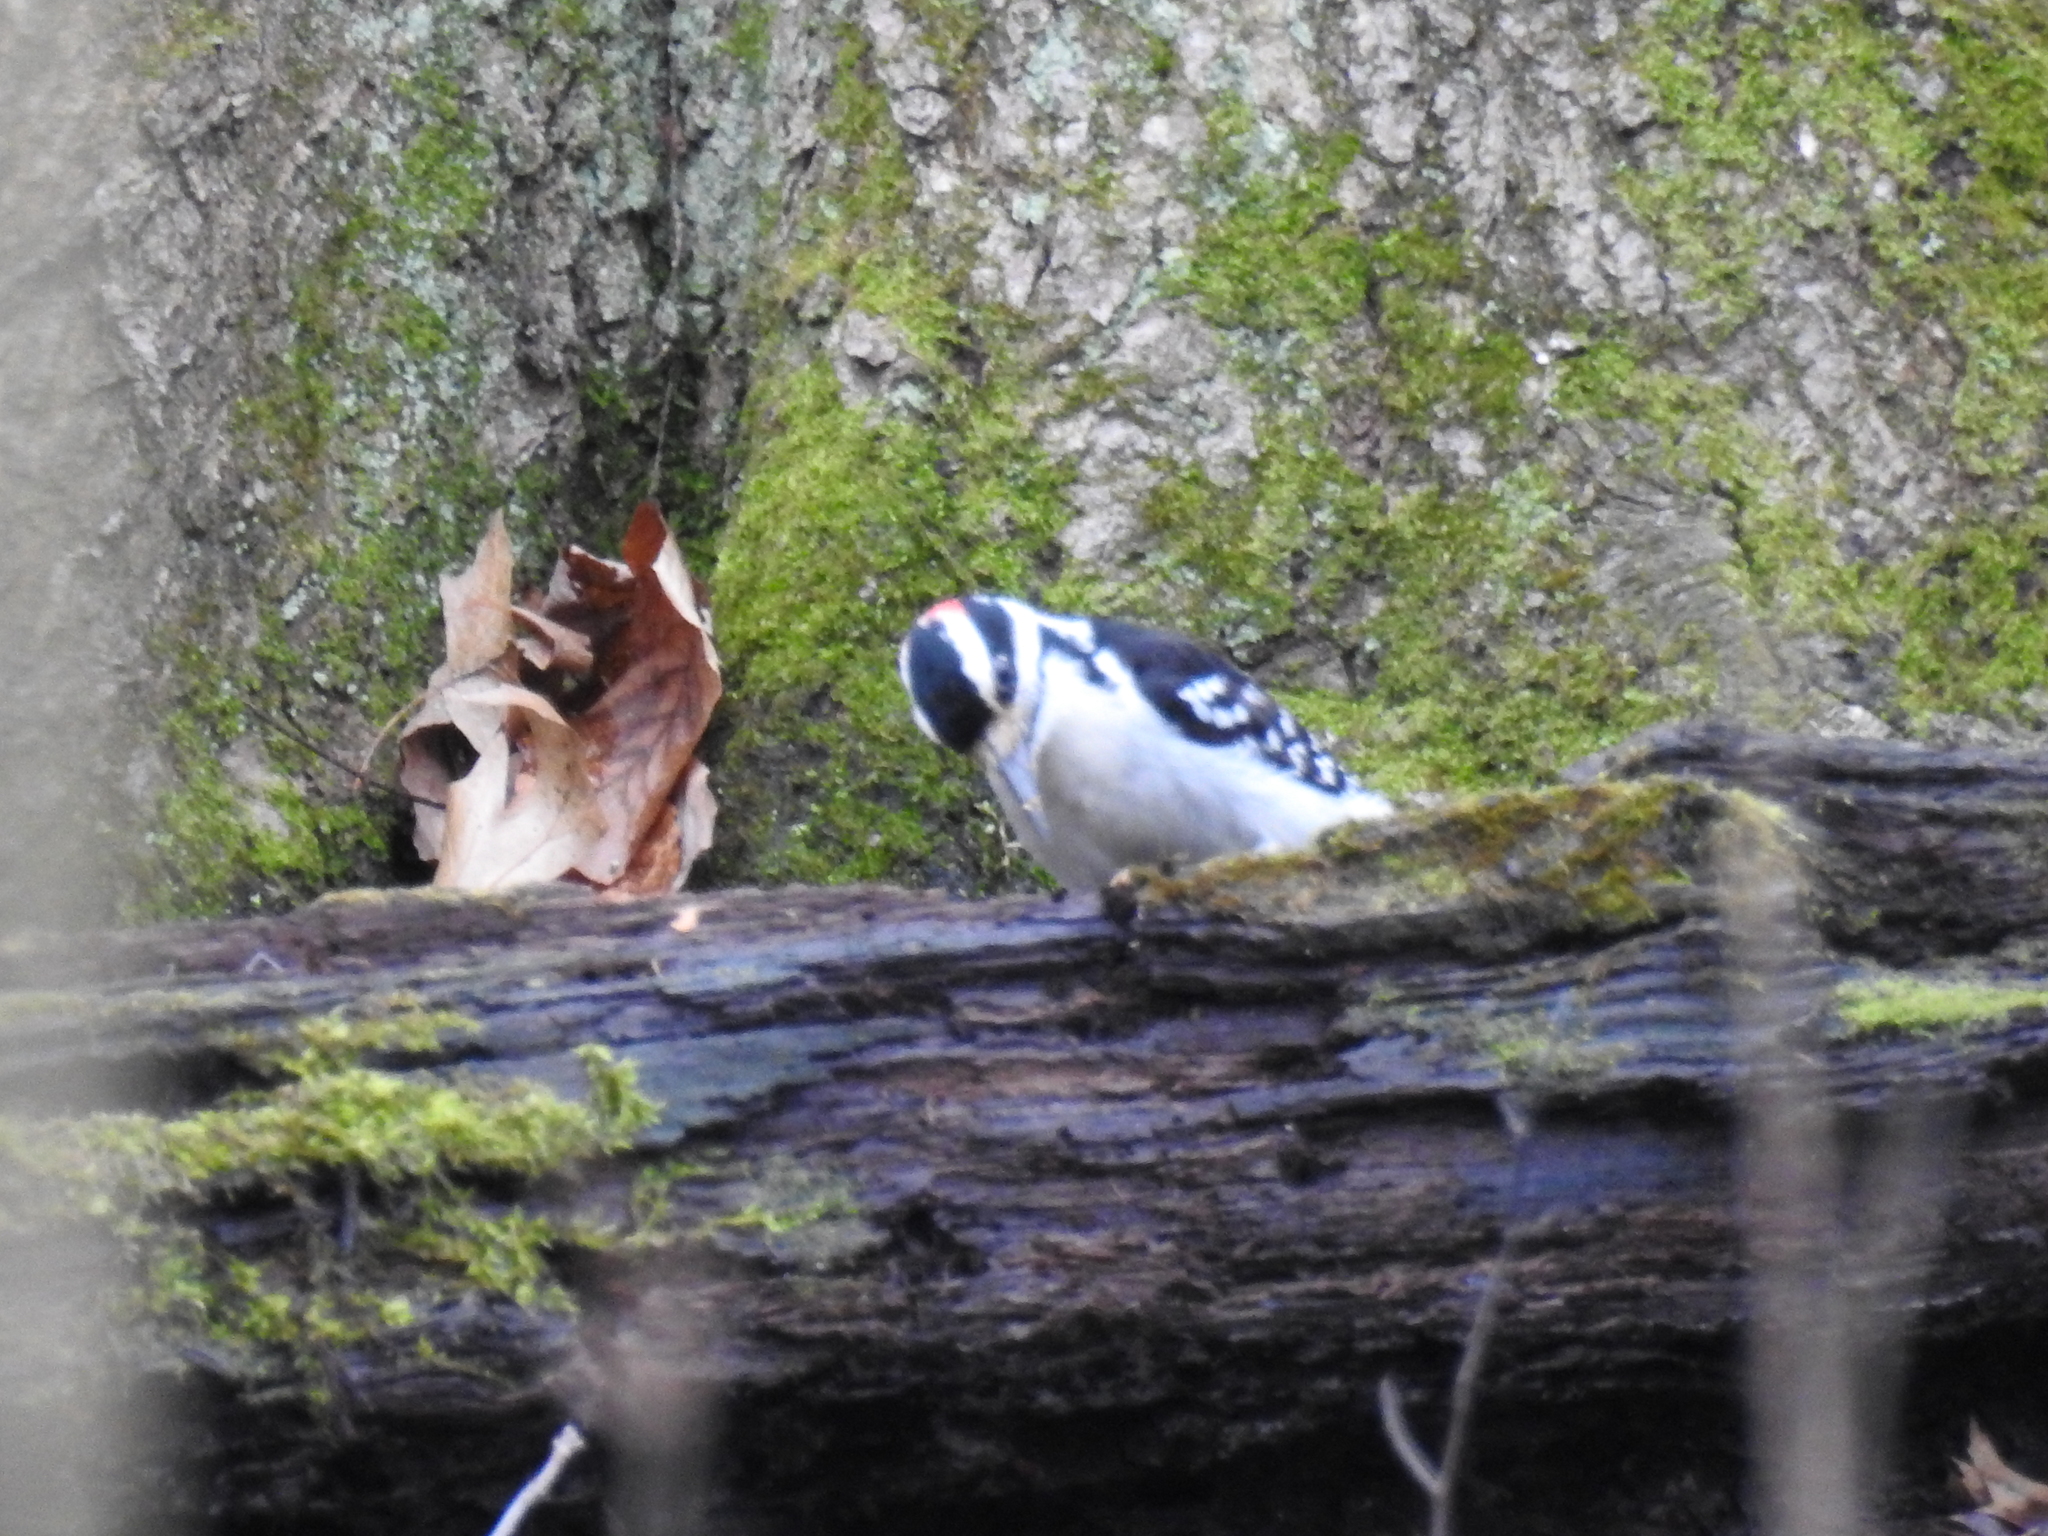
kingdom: Animalia
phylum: Chordata
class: Aves
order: Piciformes
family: Picidae
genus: Leuconotopicus
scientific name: Leuconotopicus villosus
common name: Hairy woodpecker
